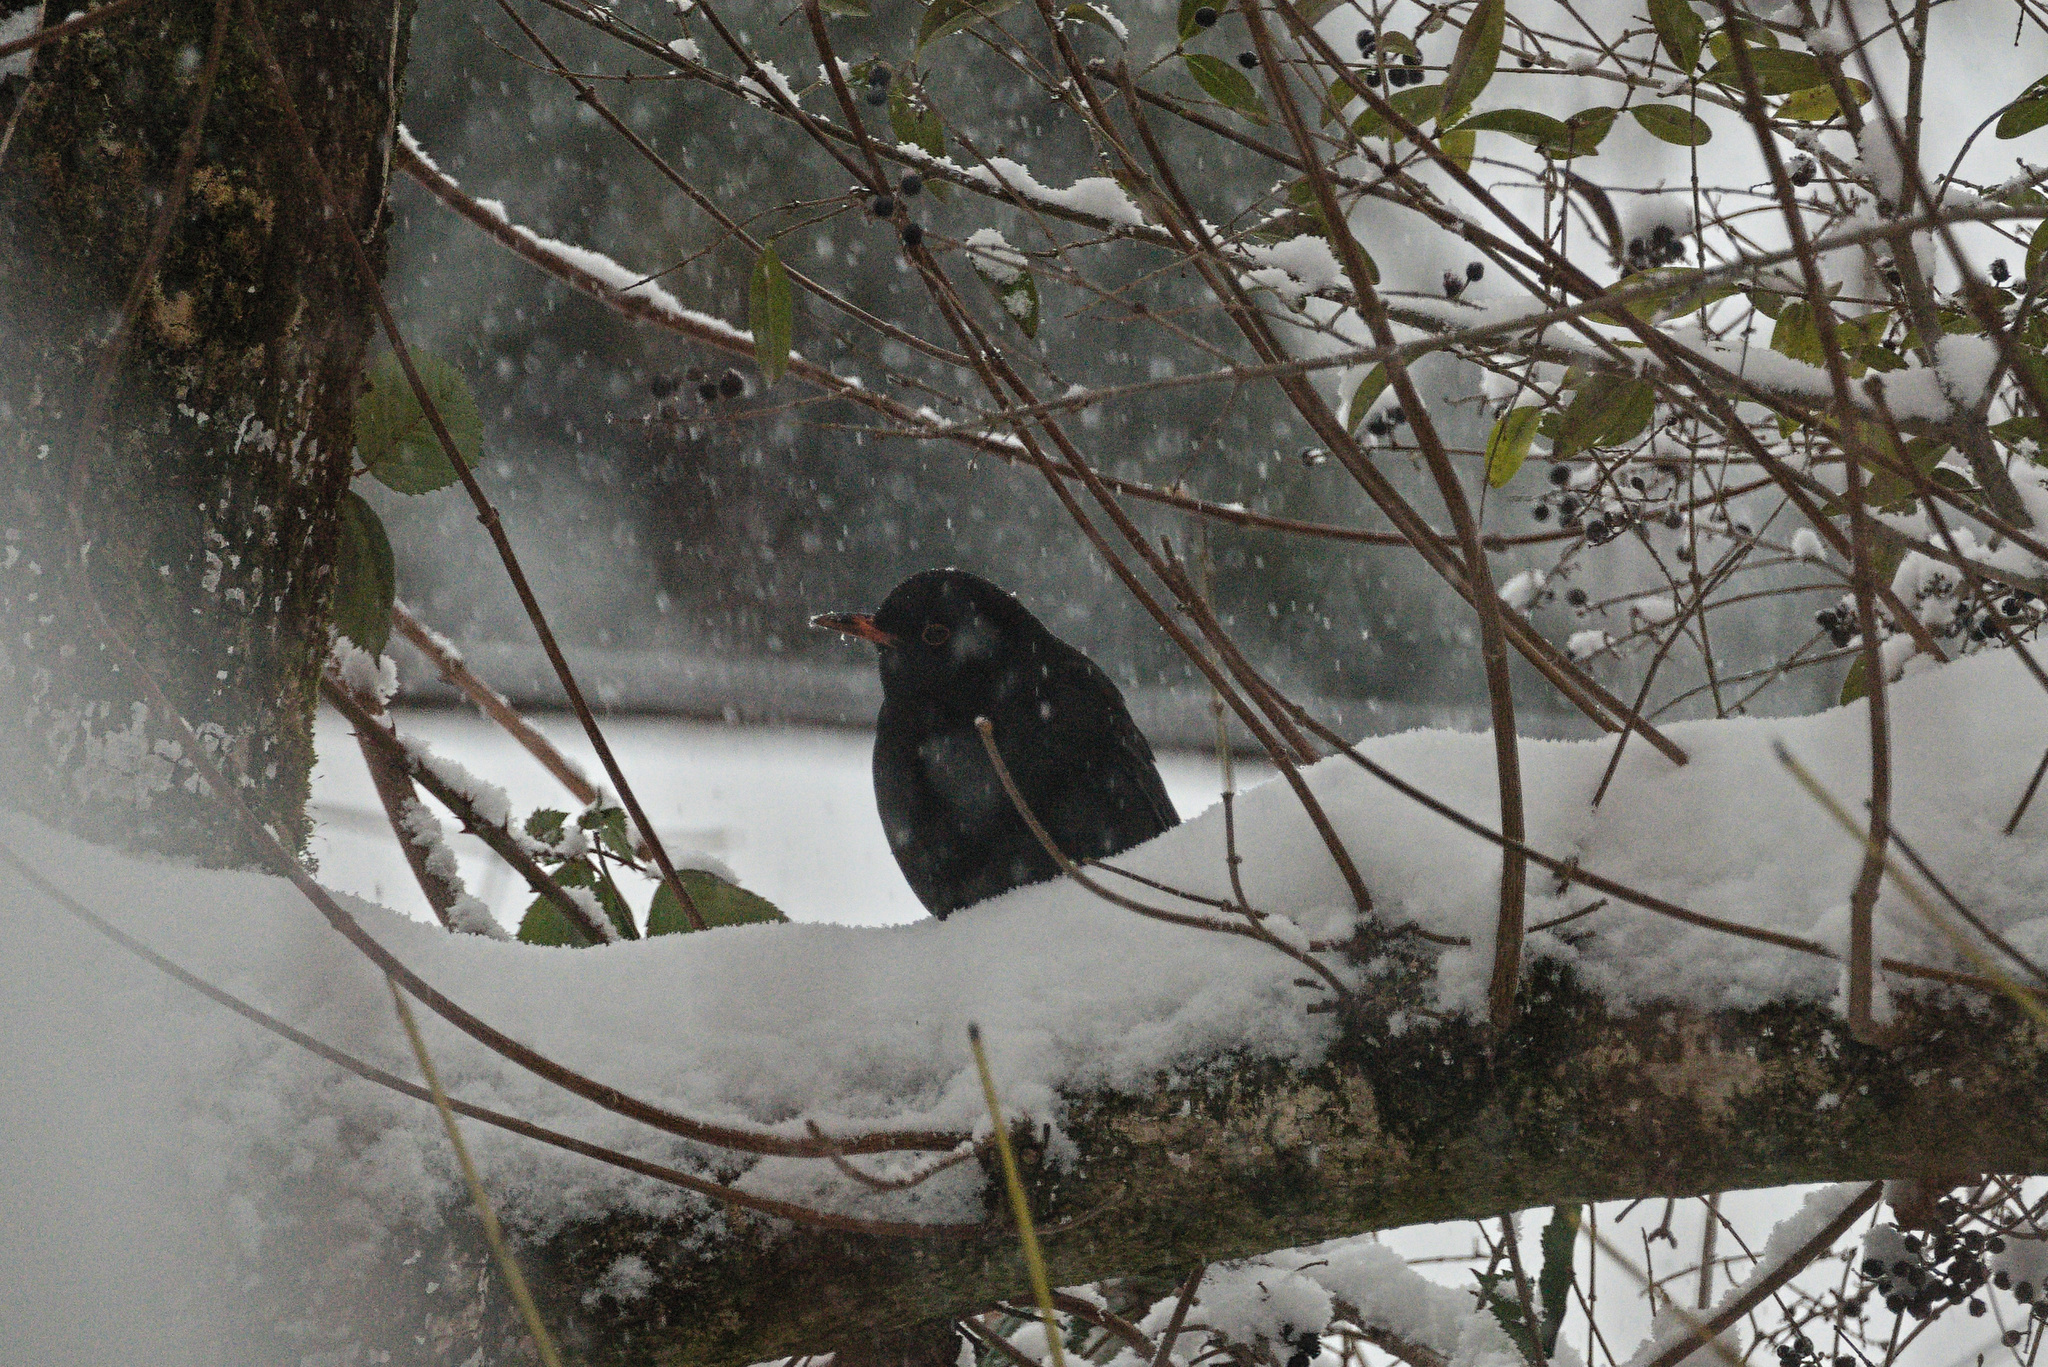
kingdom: Animalia
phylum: Chordata
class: Aves
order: Passeriformes
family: Turdidae
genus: Turdus
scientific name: Turdus merula
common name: Common blackbird
